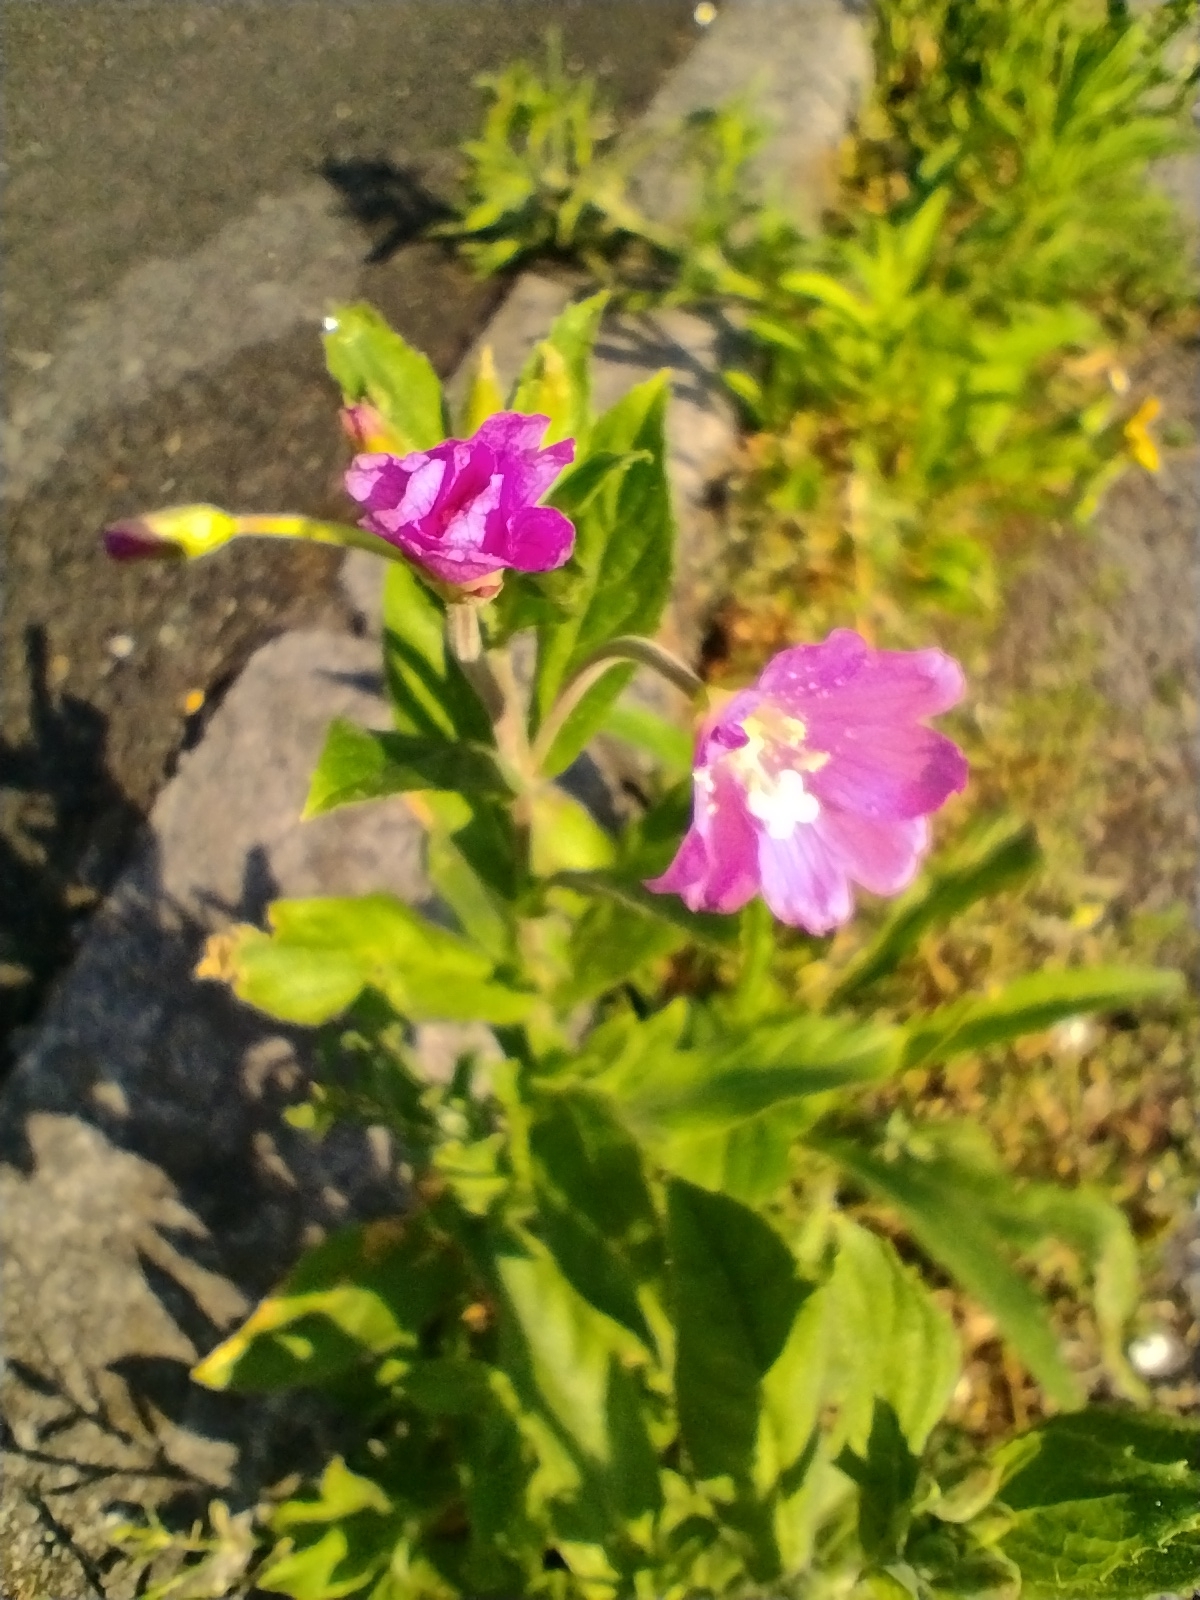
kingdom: Plantae
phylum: Tracheophyta
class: Magnoliopsida
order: Myrtales
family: Onagraceae
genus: Epilobium
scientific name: Epilobium hirsutum
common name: Great willowherb
